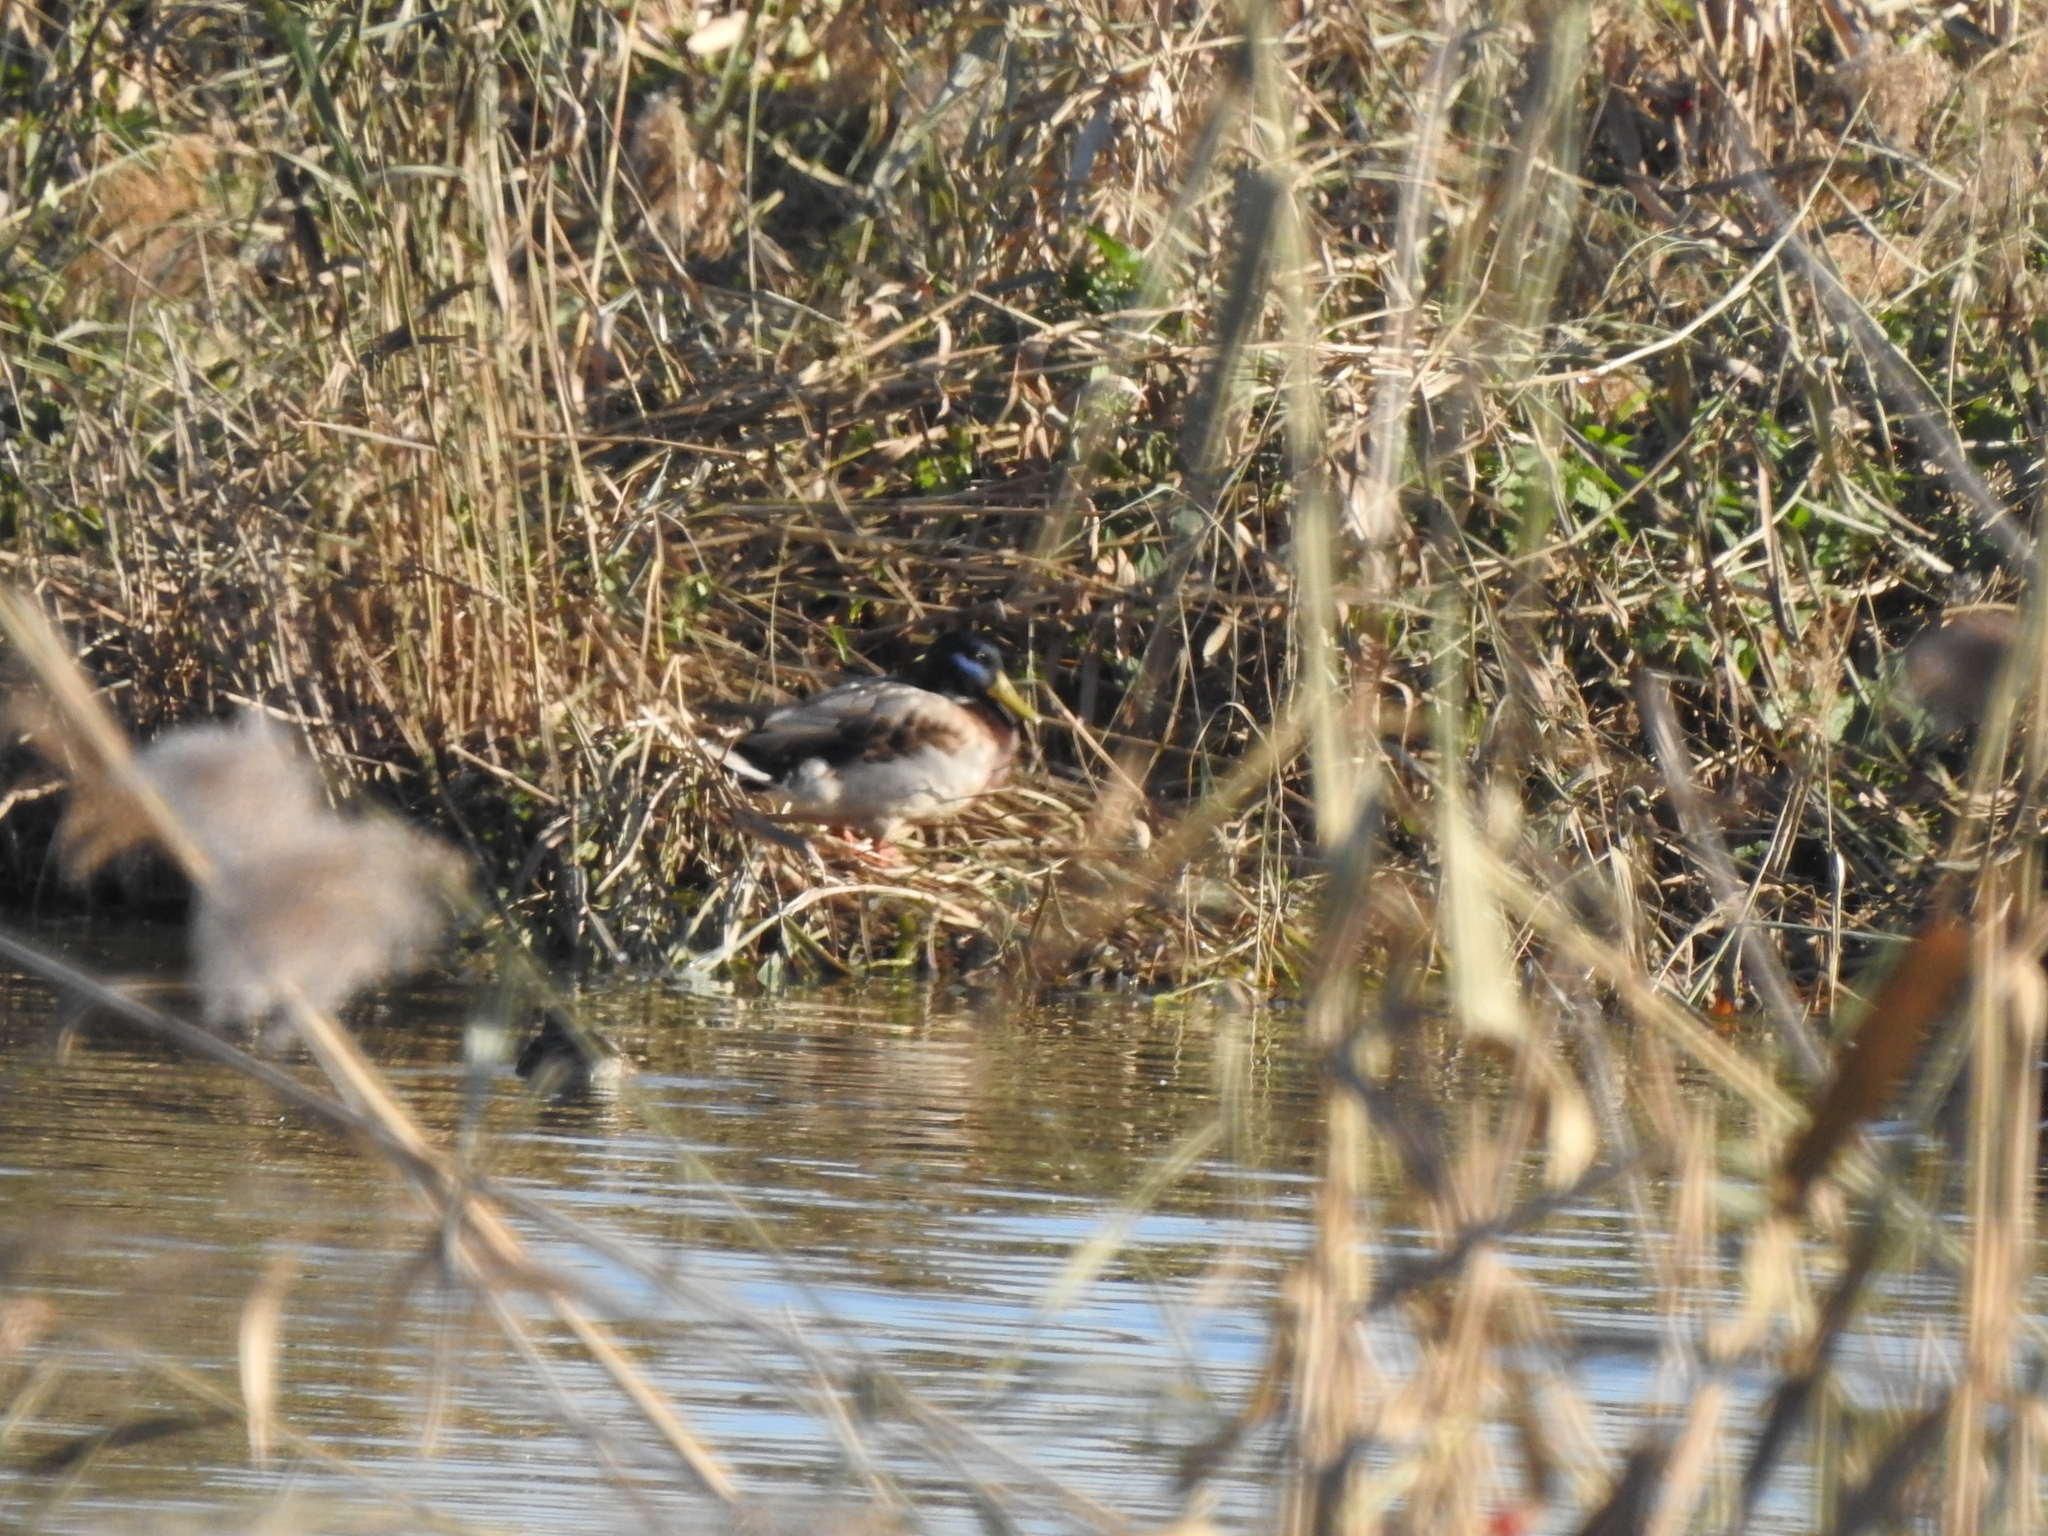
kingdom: Animalia
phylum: Chordata
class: Aves
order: Anseriformes
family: Anatidae
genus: Anas
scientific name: Anas platyrhynchos
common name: Mallard
